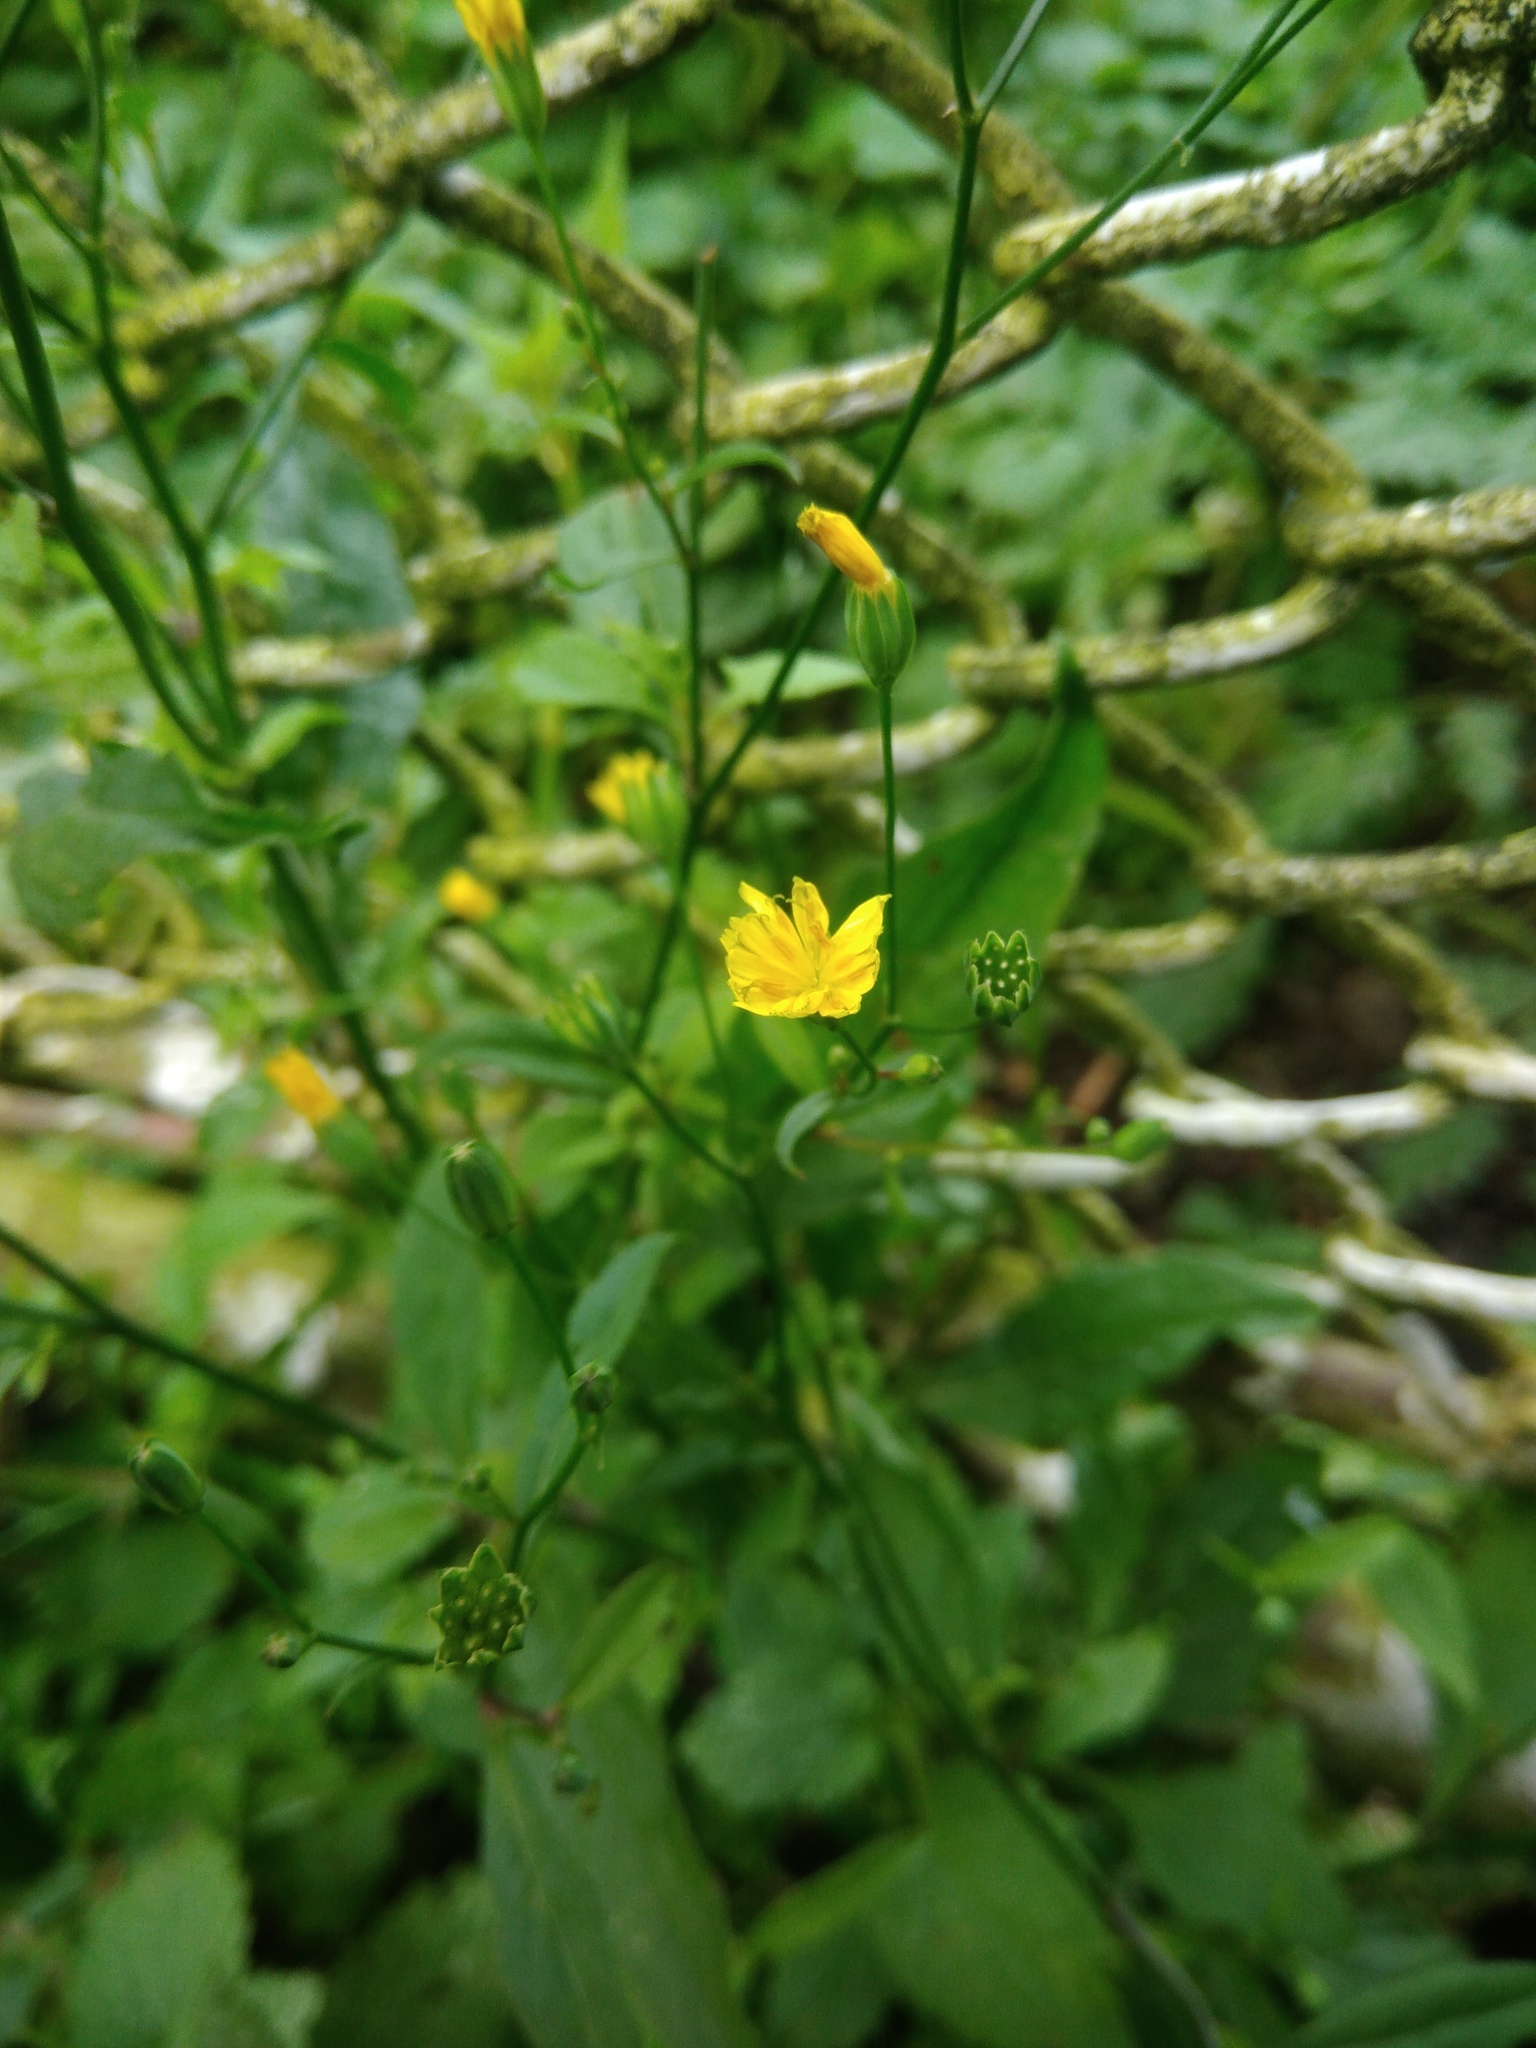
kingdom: Plantae
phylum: Tracheophyta
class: Magnoliopsida
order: Asterales
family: Asteraceae
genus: Lapsana
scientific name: Lapsana communis
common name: Nipplewort
